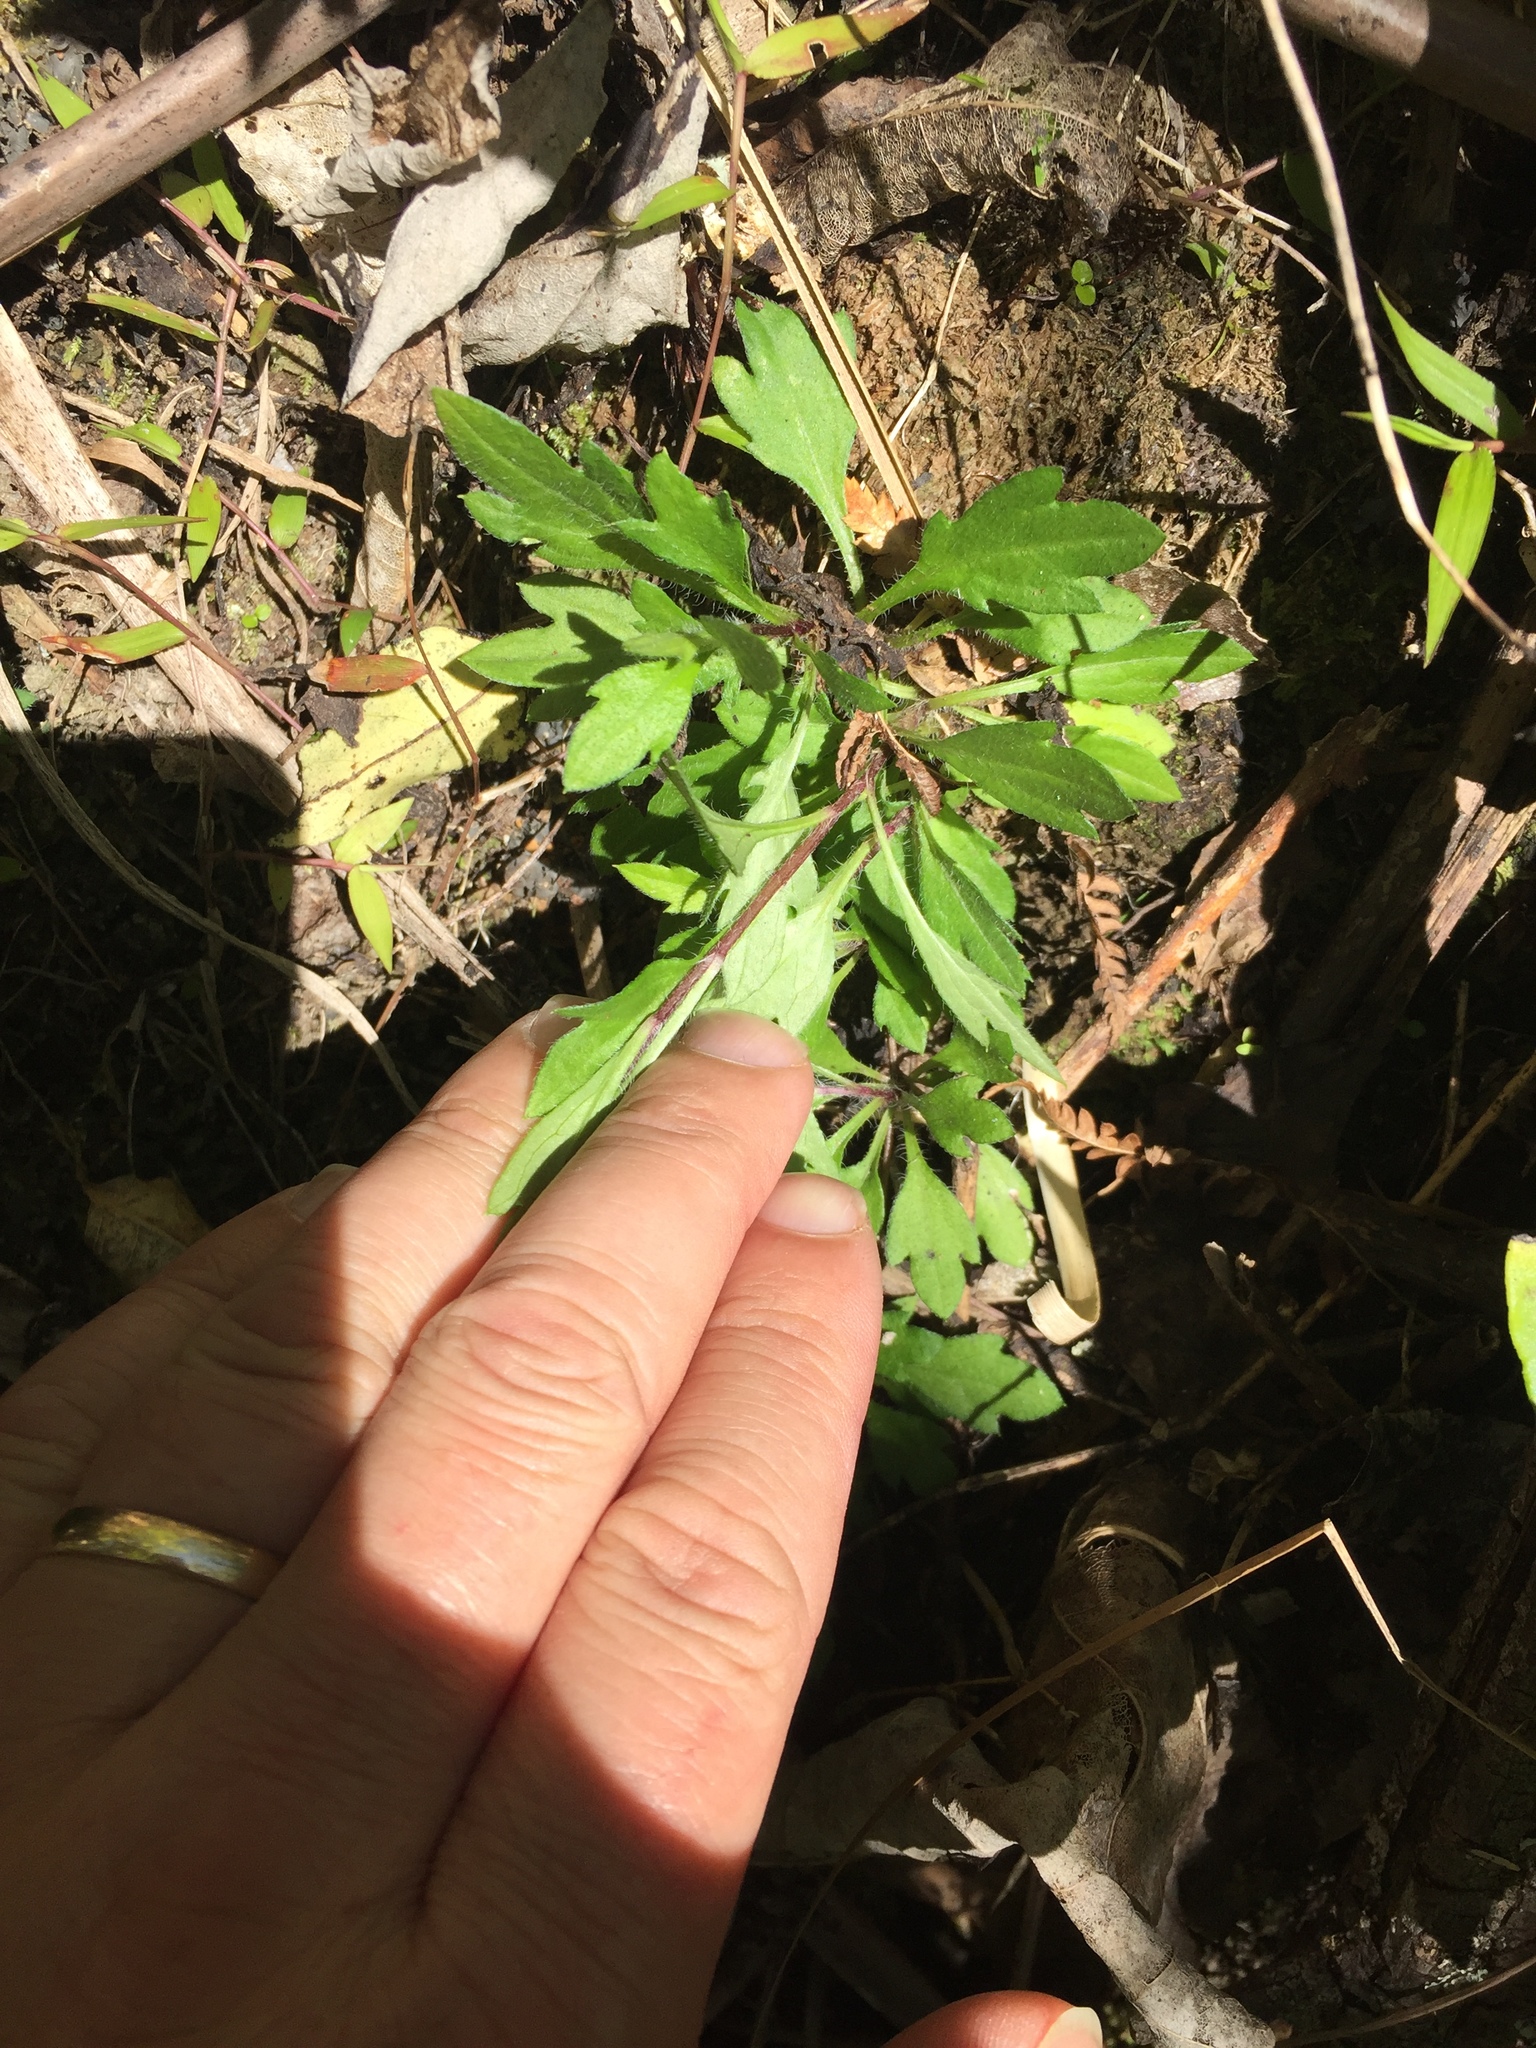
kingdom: Plantae
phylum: Tracheophyta
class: Magnoliopsida
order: Asterales
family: Asteraceae
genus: Erigeron
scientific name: Erigeron karvinskianus
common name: Mexican fleabane
